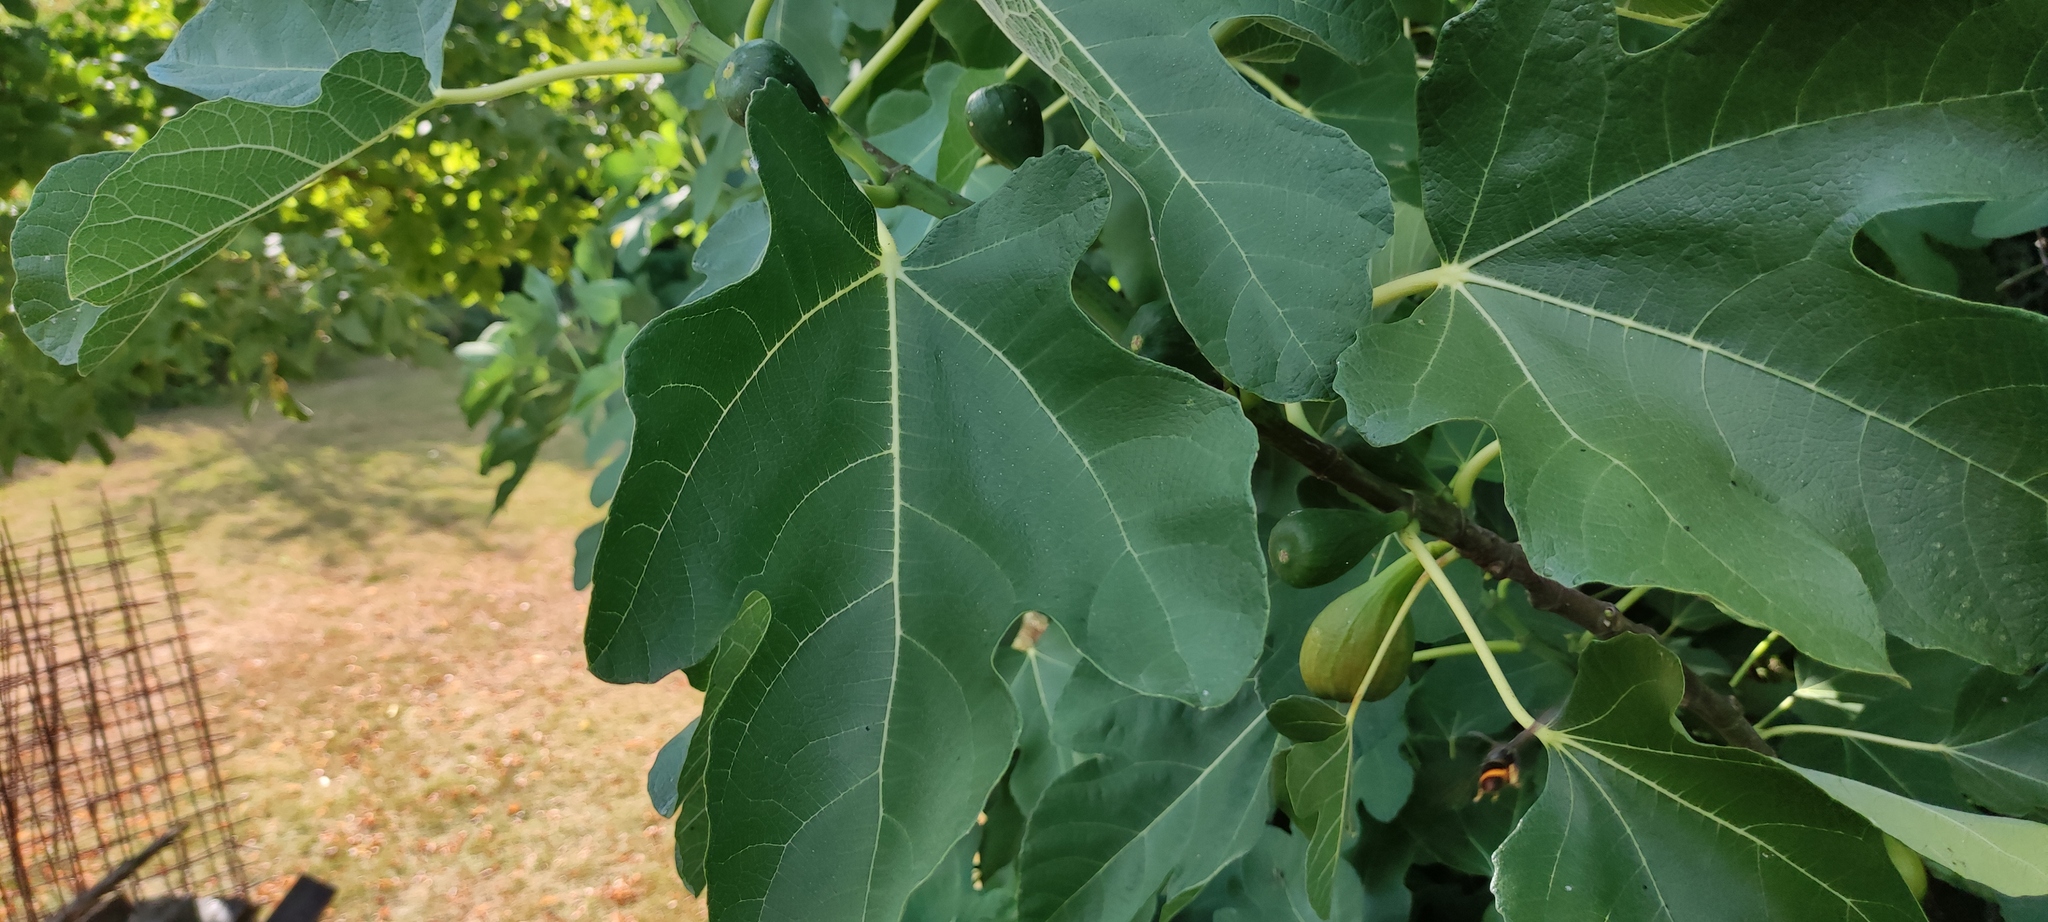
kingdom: Animalia
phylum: Arthropoda
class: Insecta
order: Hymenoptera
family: Vespidae
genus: Vespa
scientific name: Vespa velutina
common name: Asian hornet
